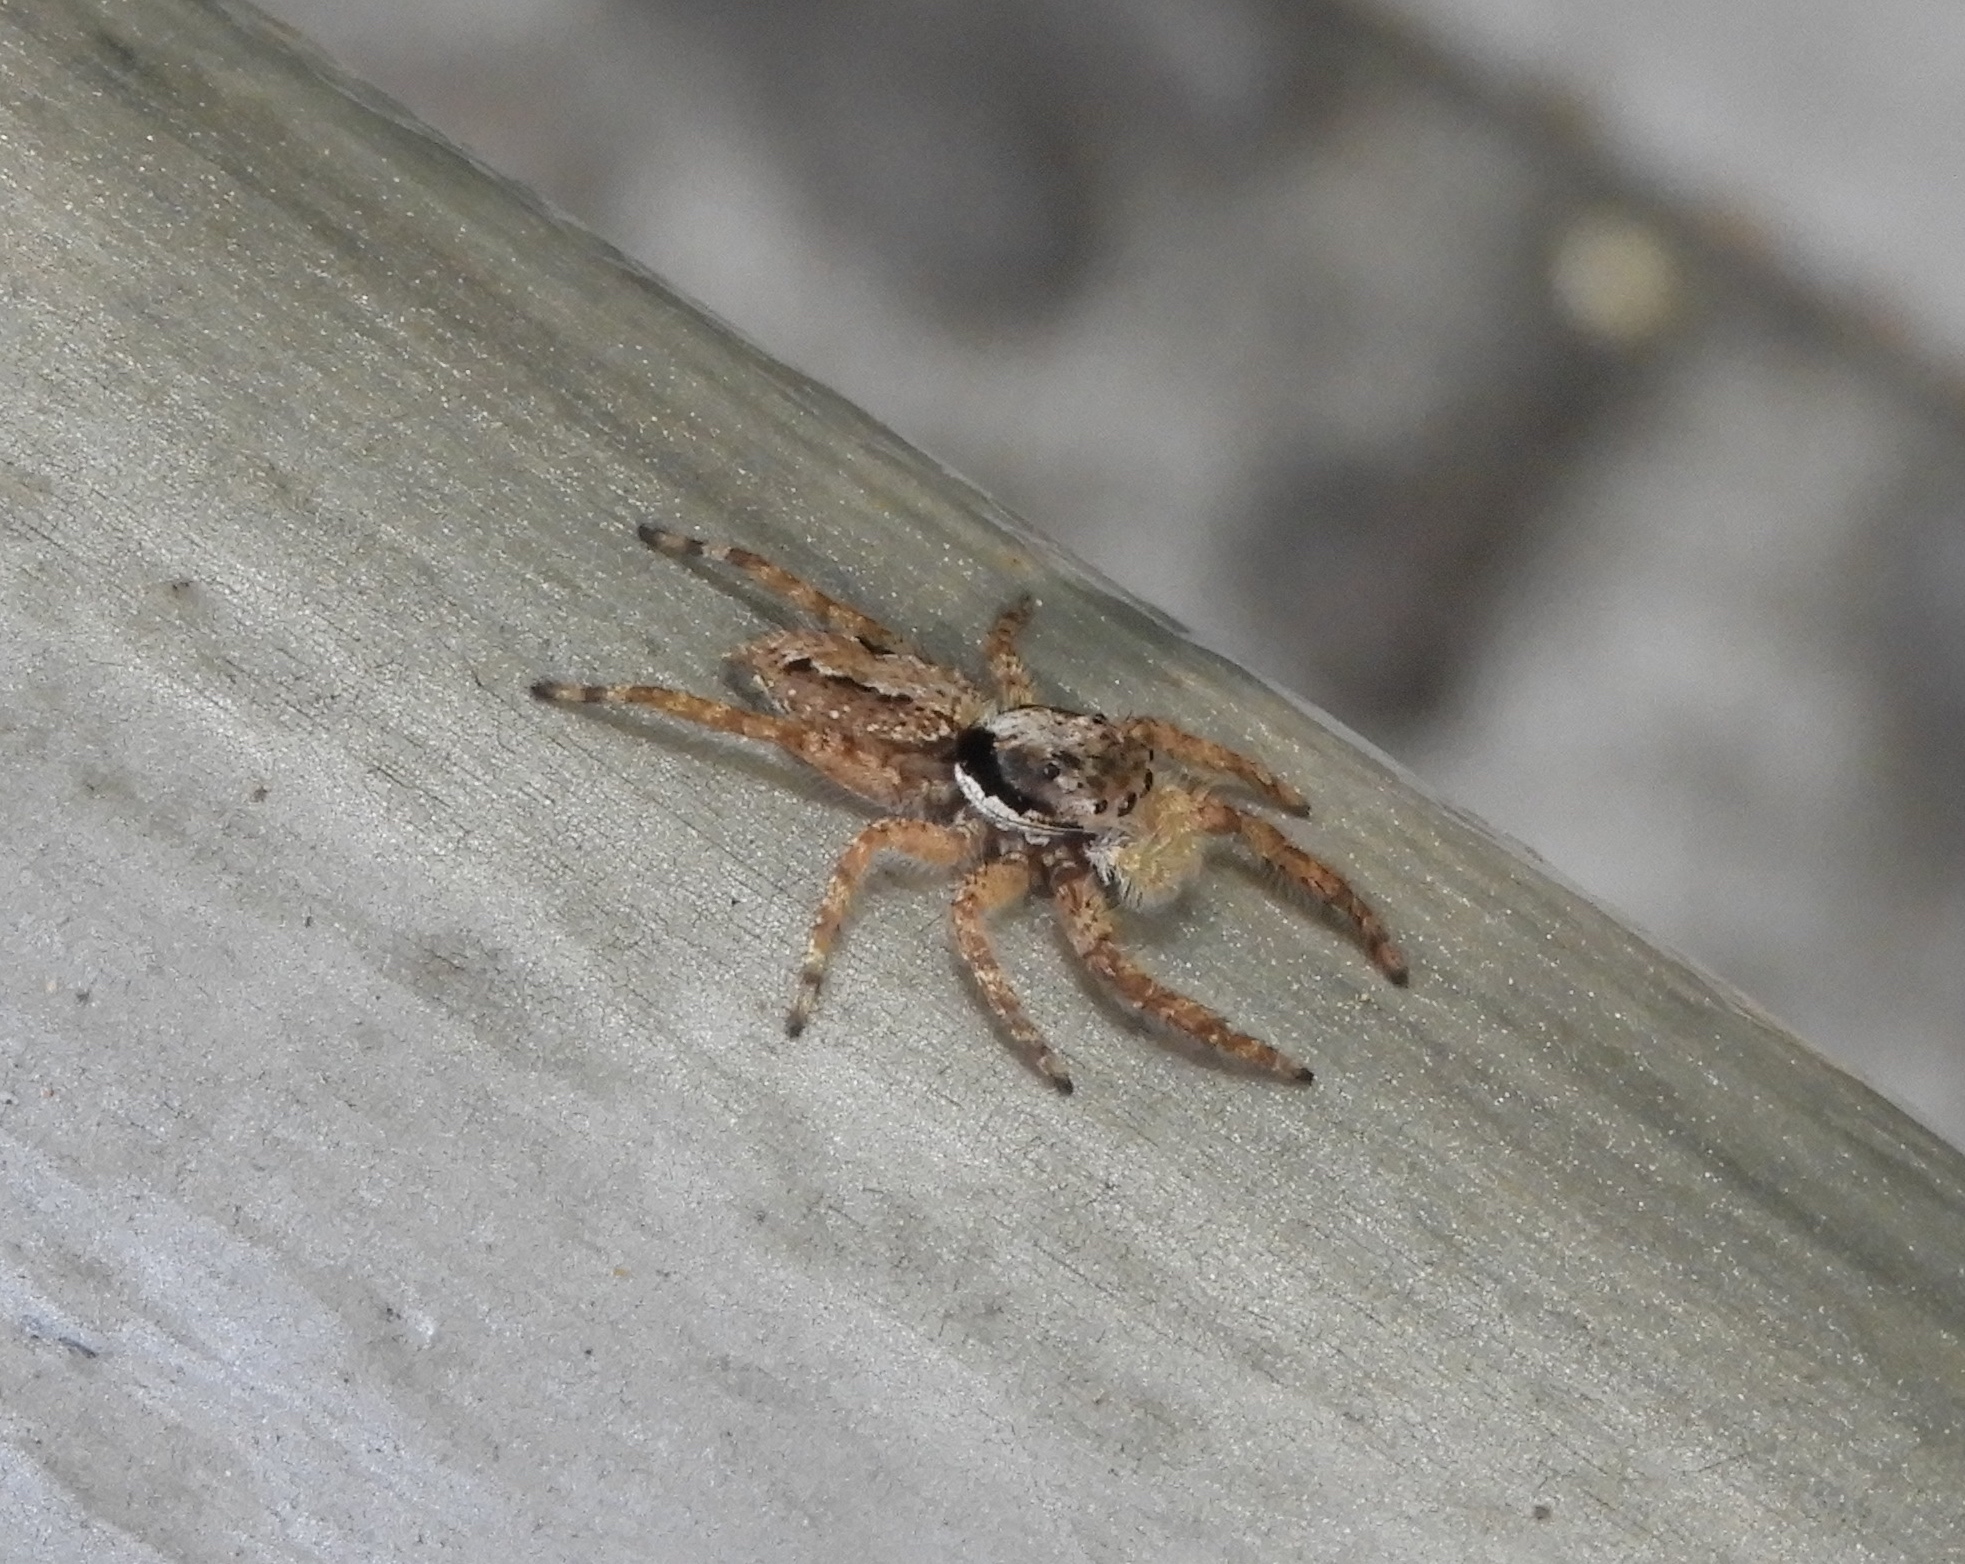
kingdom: Animalia
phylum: Arthropoda
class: Arachnida
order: Araneae
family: Salticidae
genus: Balmaceda
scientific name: Balmaceda
